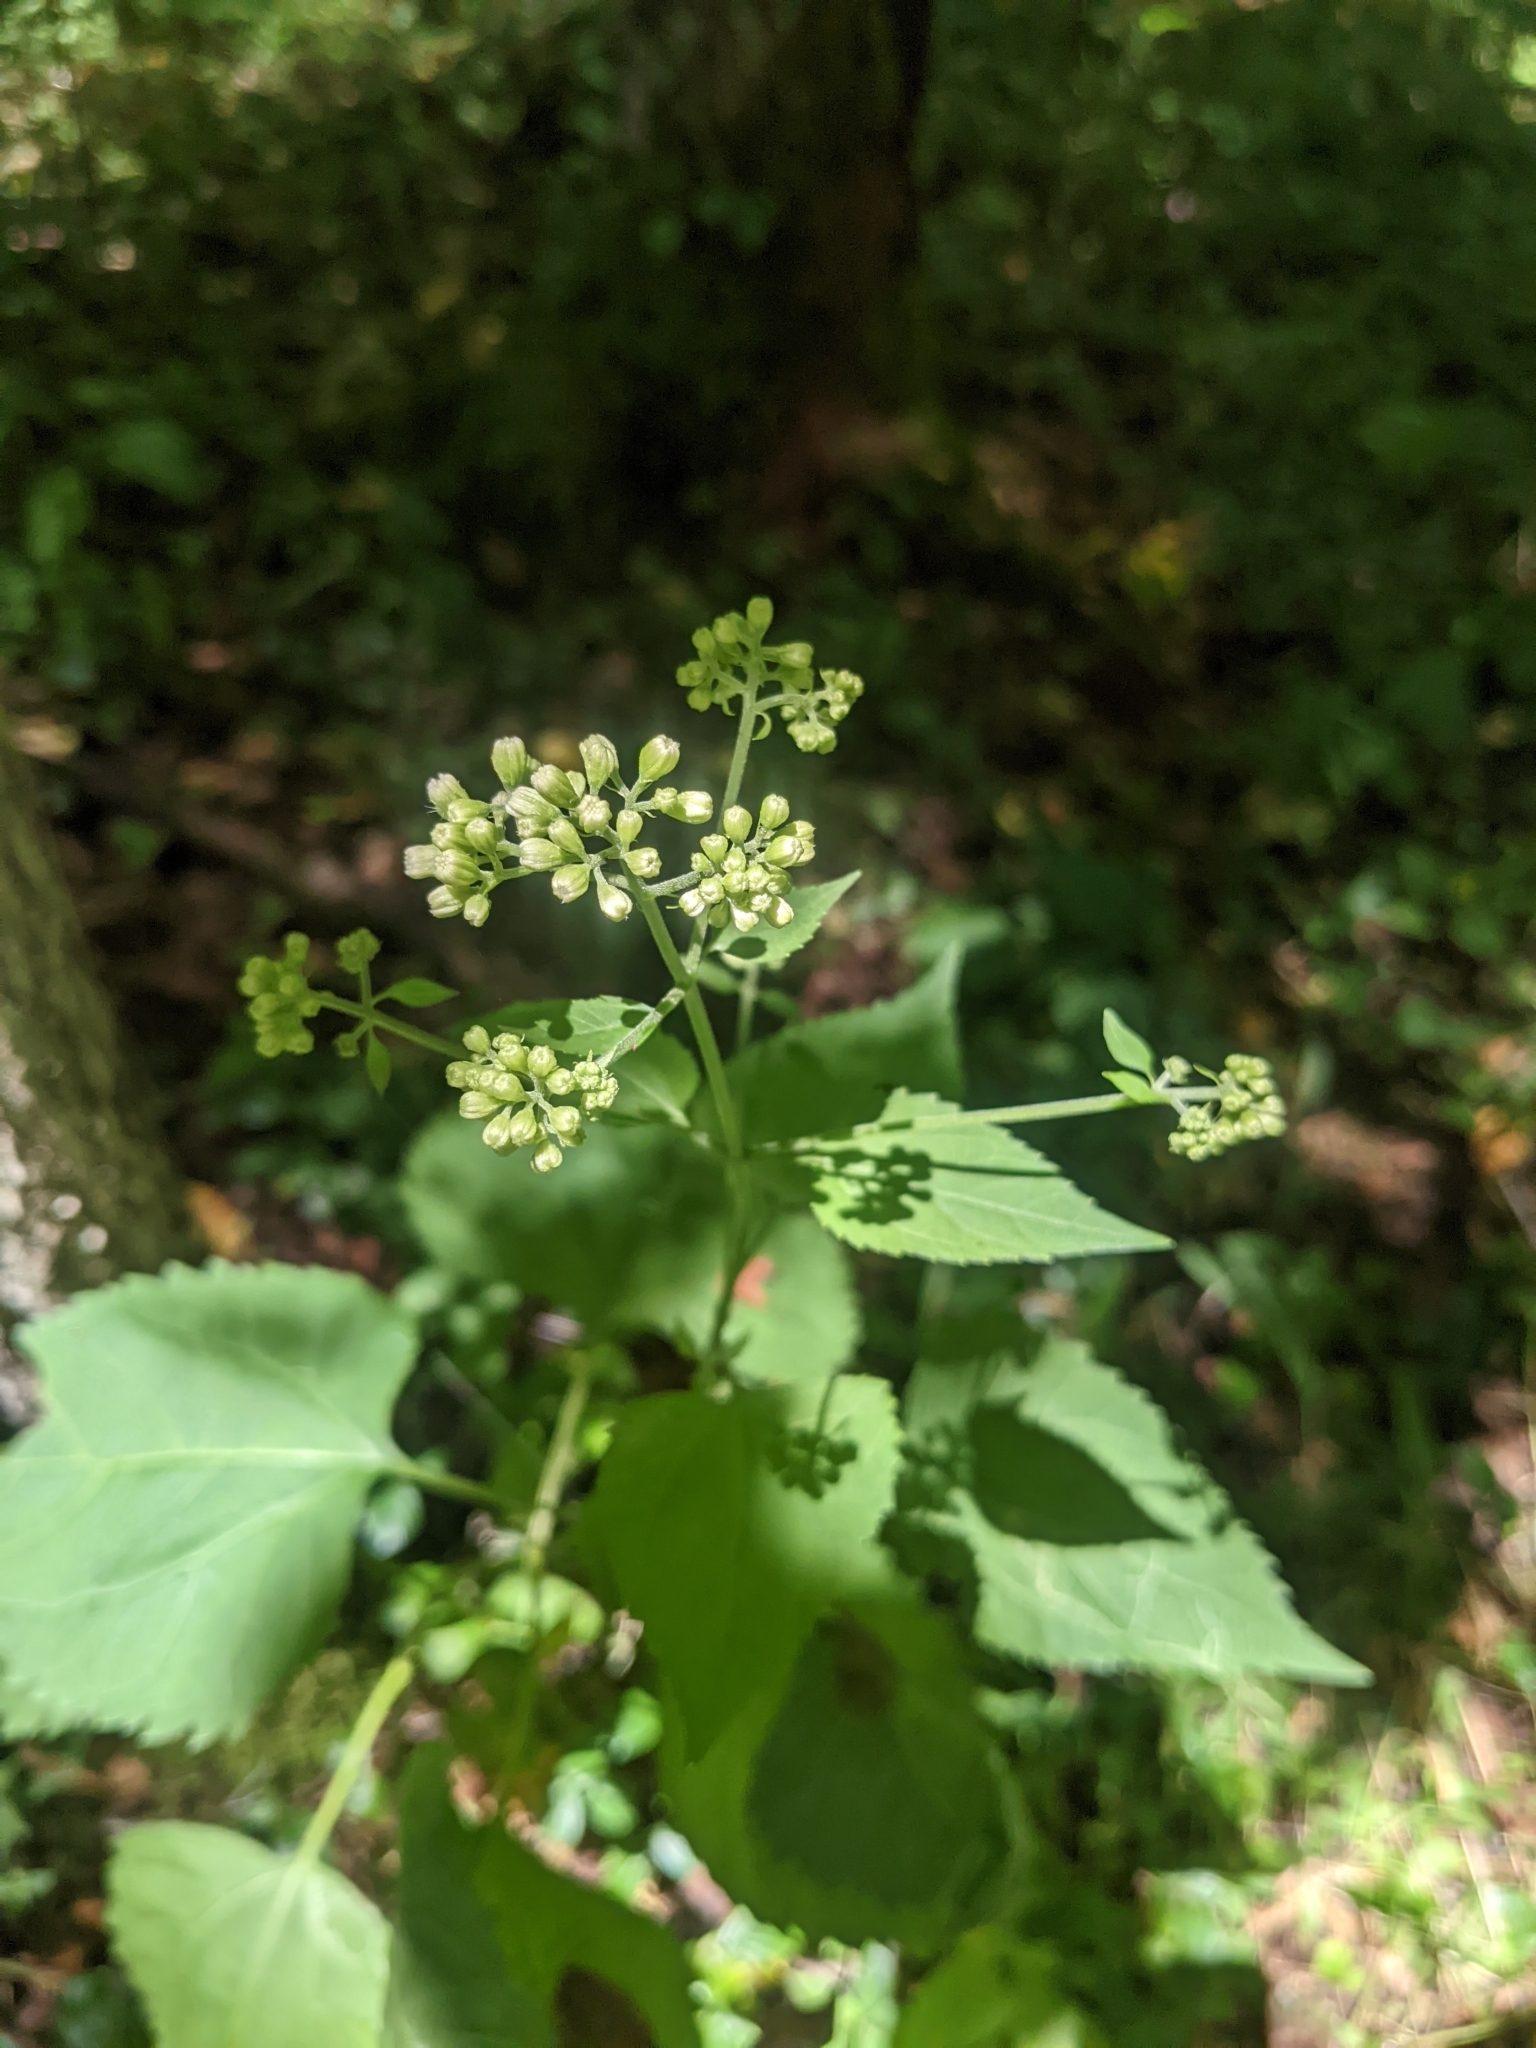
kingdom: Plantae
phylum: Tracheophyta
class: Magnoliopsida
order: Asterales
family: Asteraceae
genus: Ageratina
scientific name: Ageratina altissima
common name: White snakeroot
